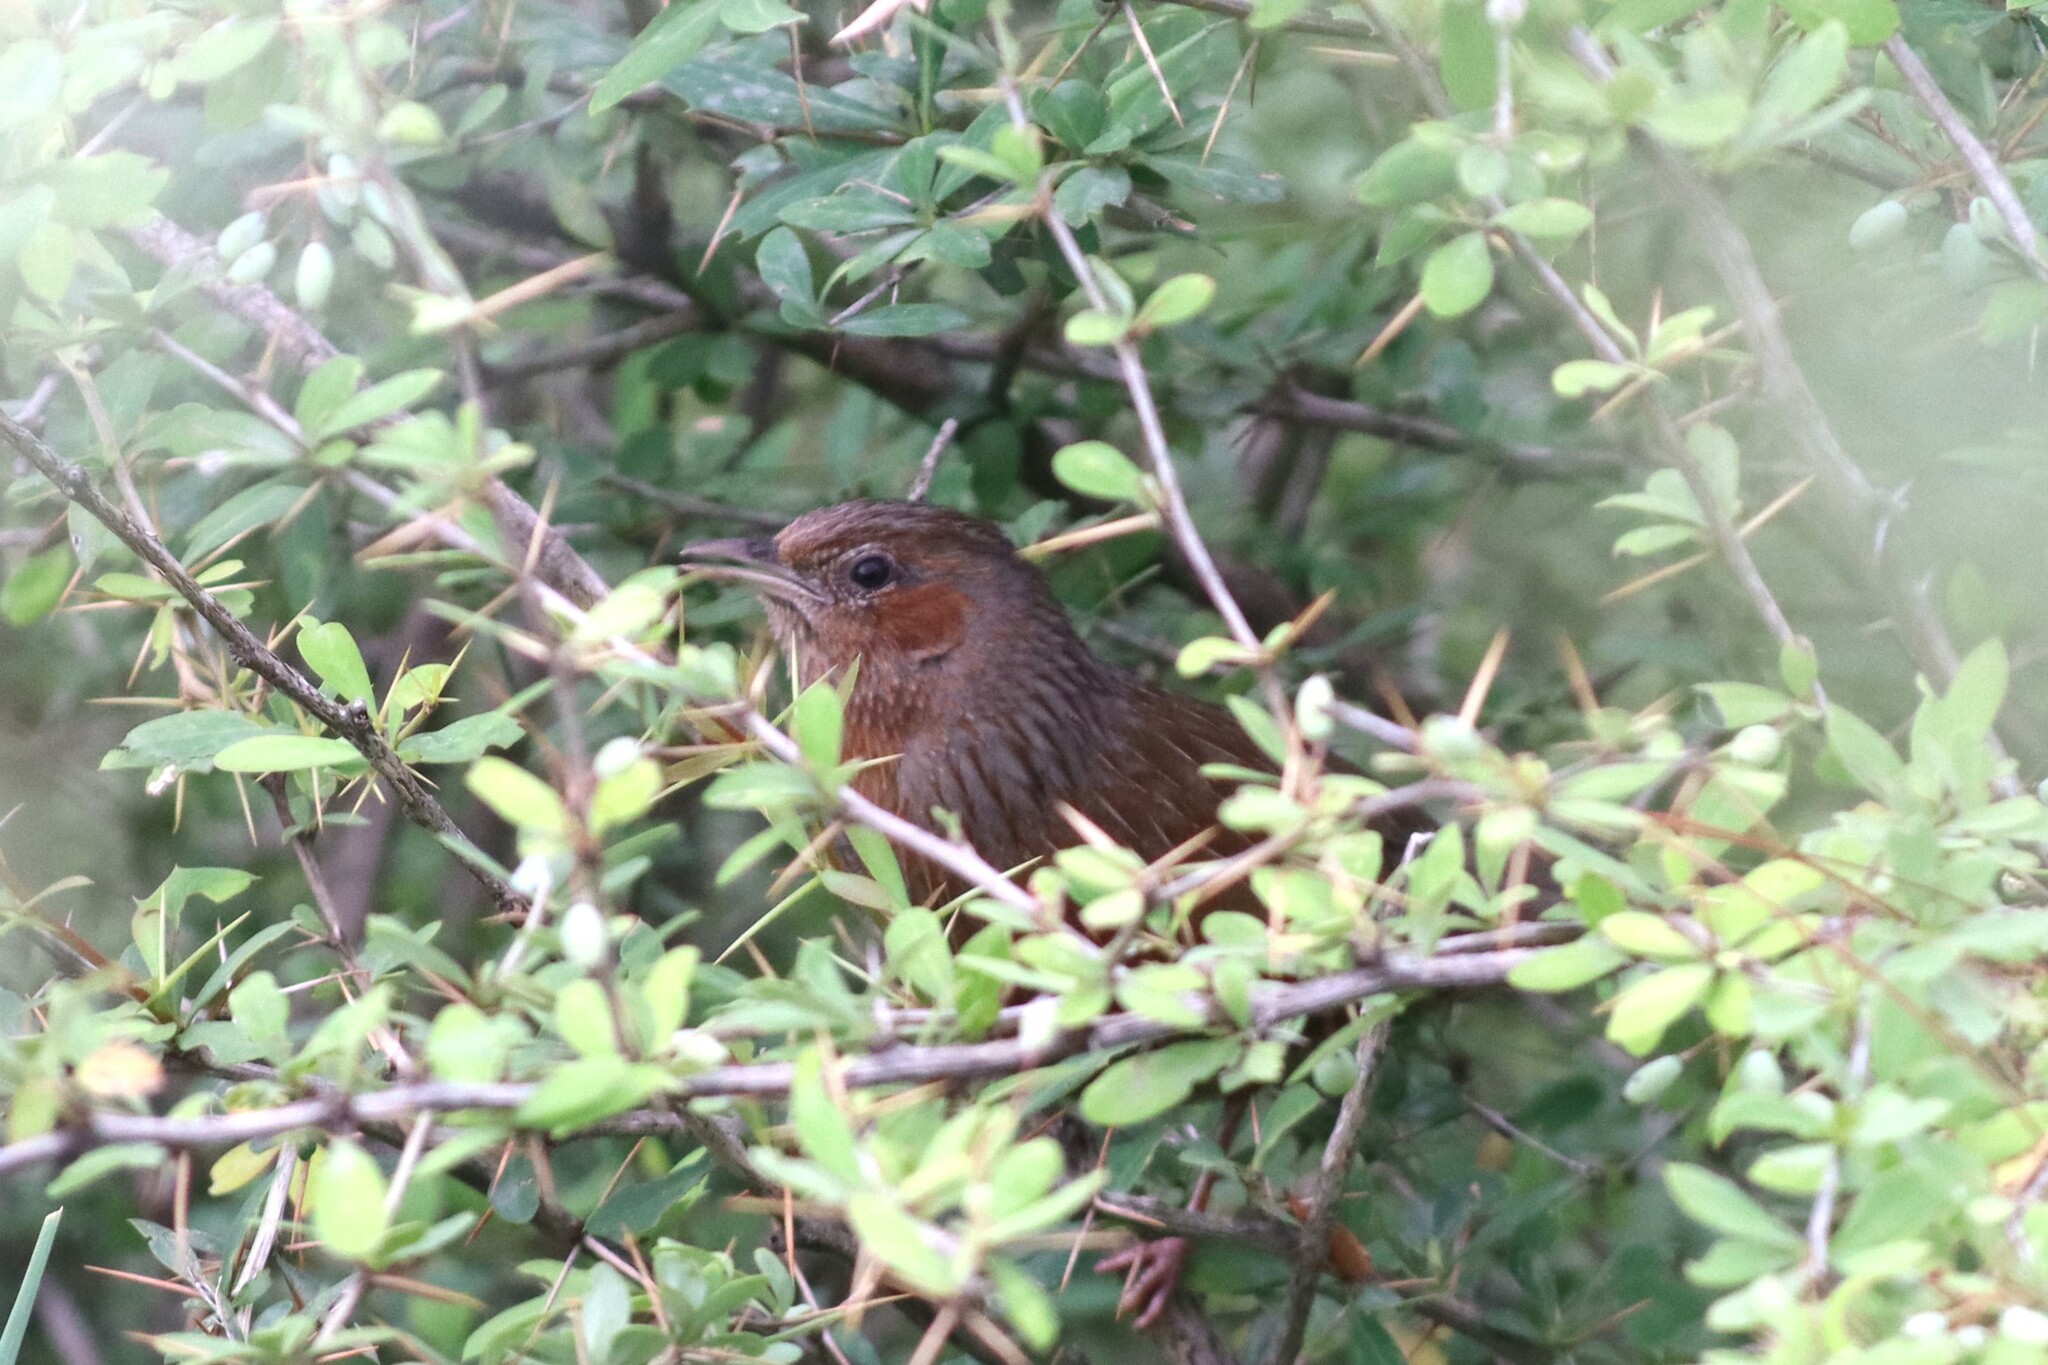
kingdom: Animalia
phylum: Chordata
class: Aves
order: Passeriformes
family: Leiothrichidae
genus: Trochalopteron
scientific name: Trochalopteron lineatum
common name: Streaked laughingthrush
